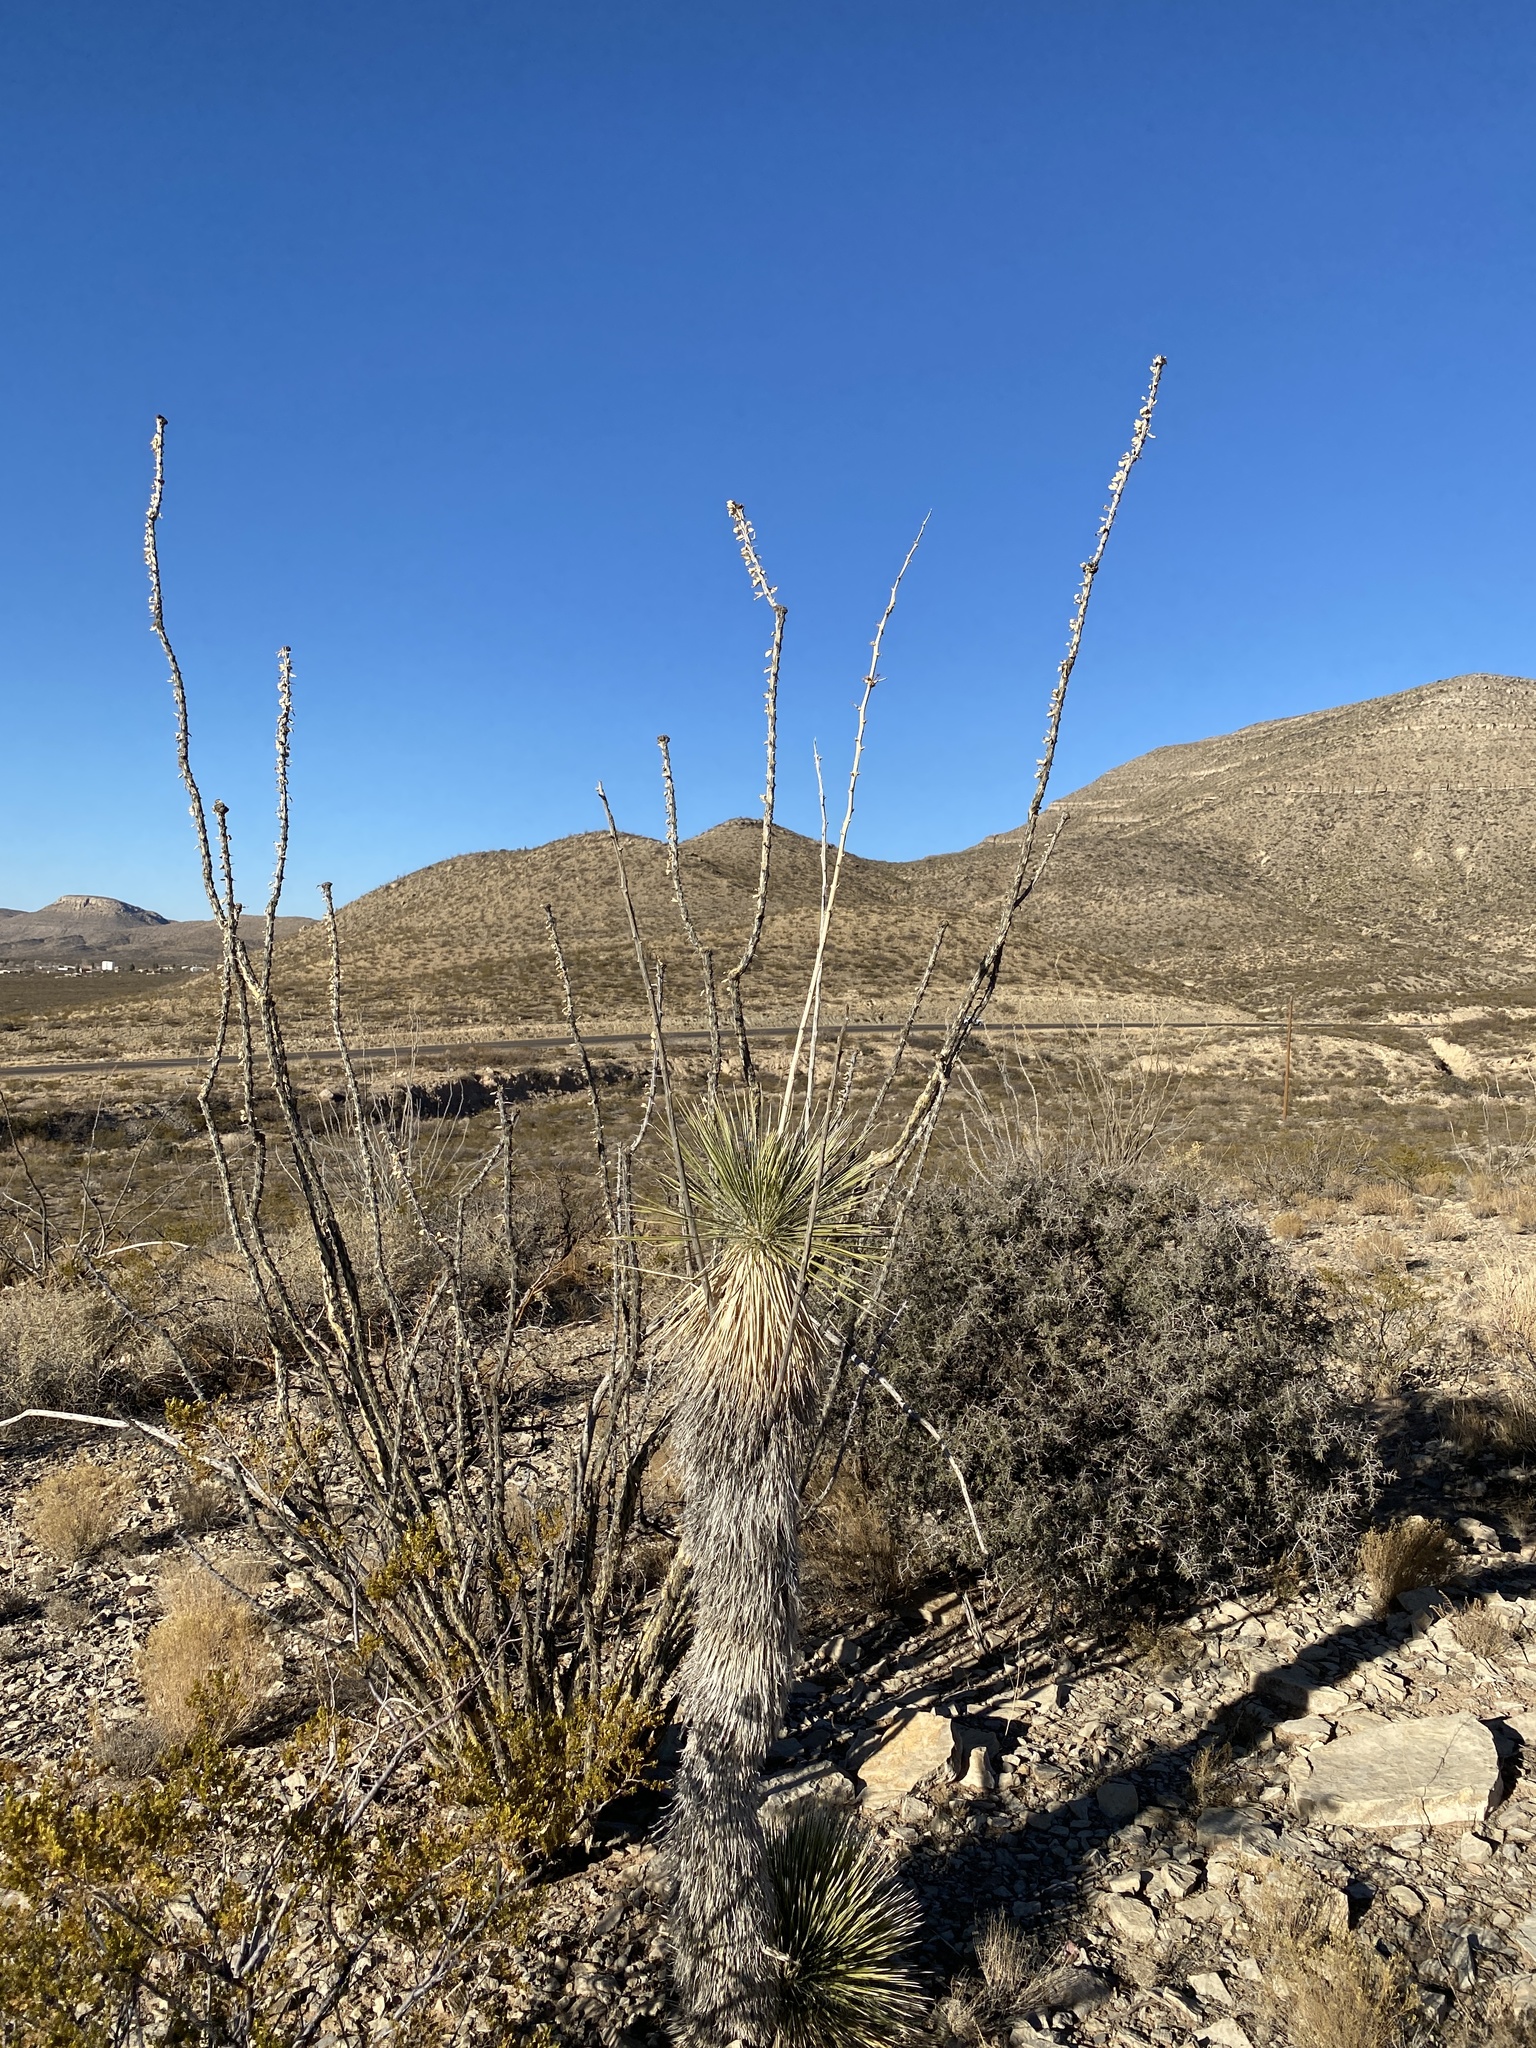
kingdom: Plantae
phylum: Tracheophyta
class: Magnoliopsida
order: Zygophyllales
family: Zygophyllaceae
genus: Larrea
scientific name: Larrea tridentata
